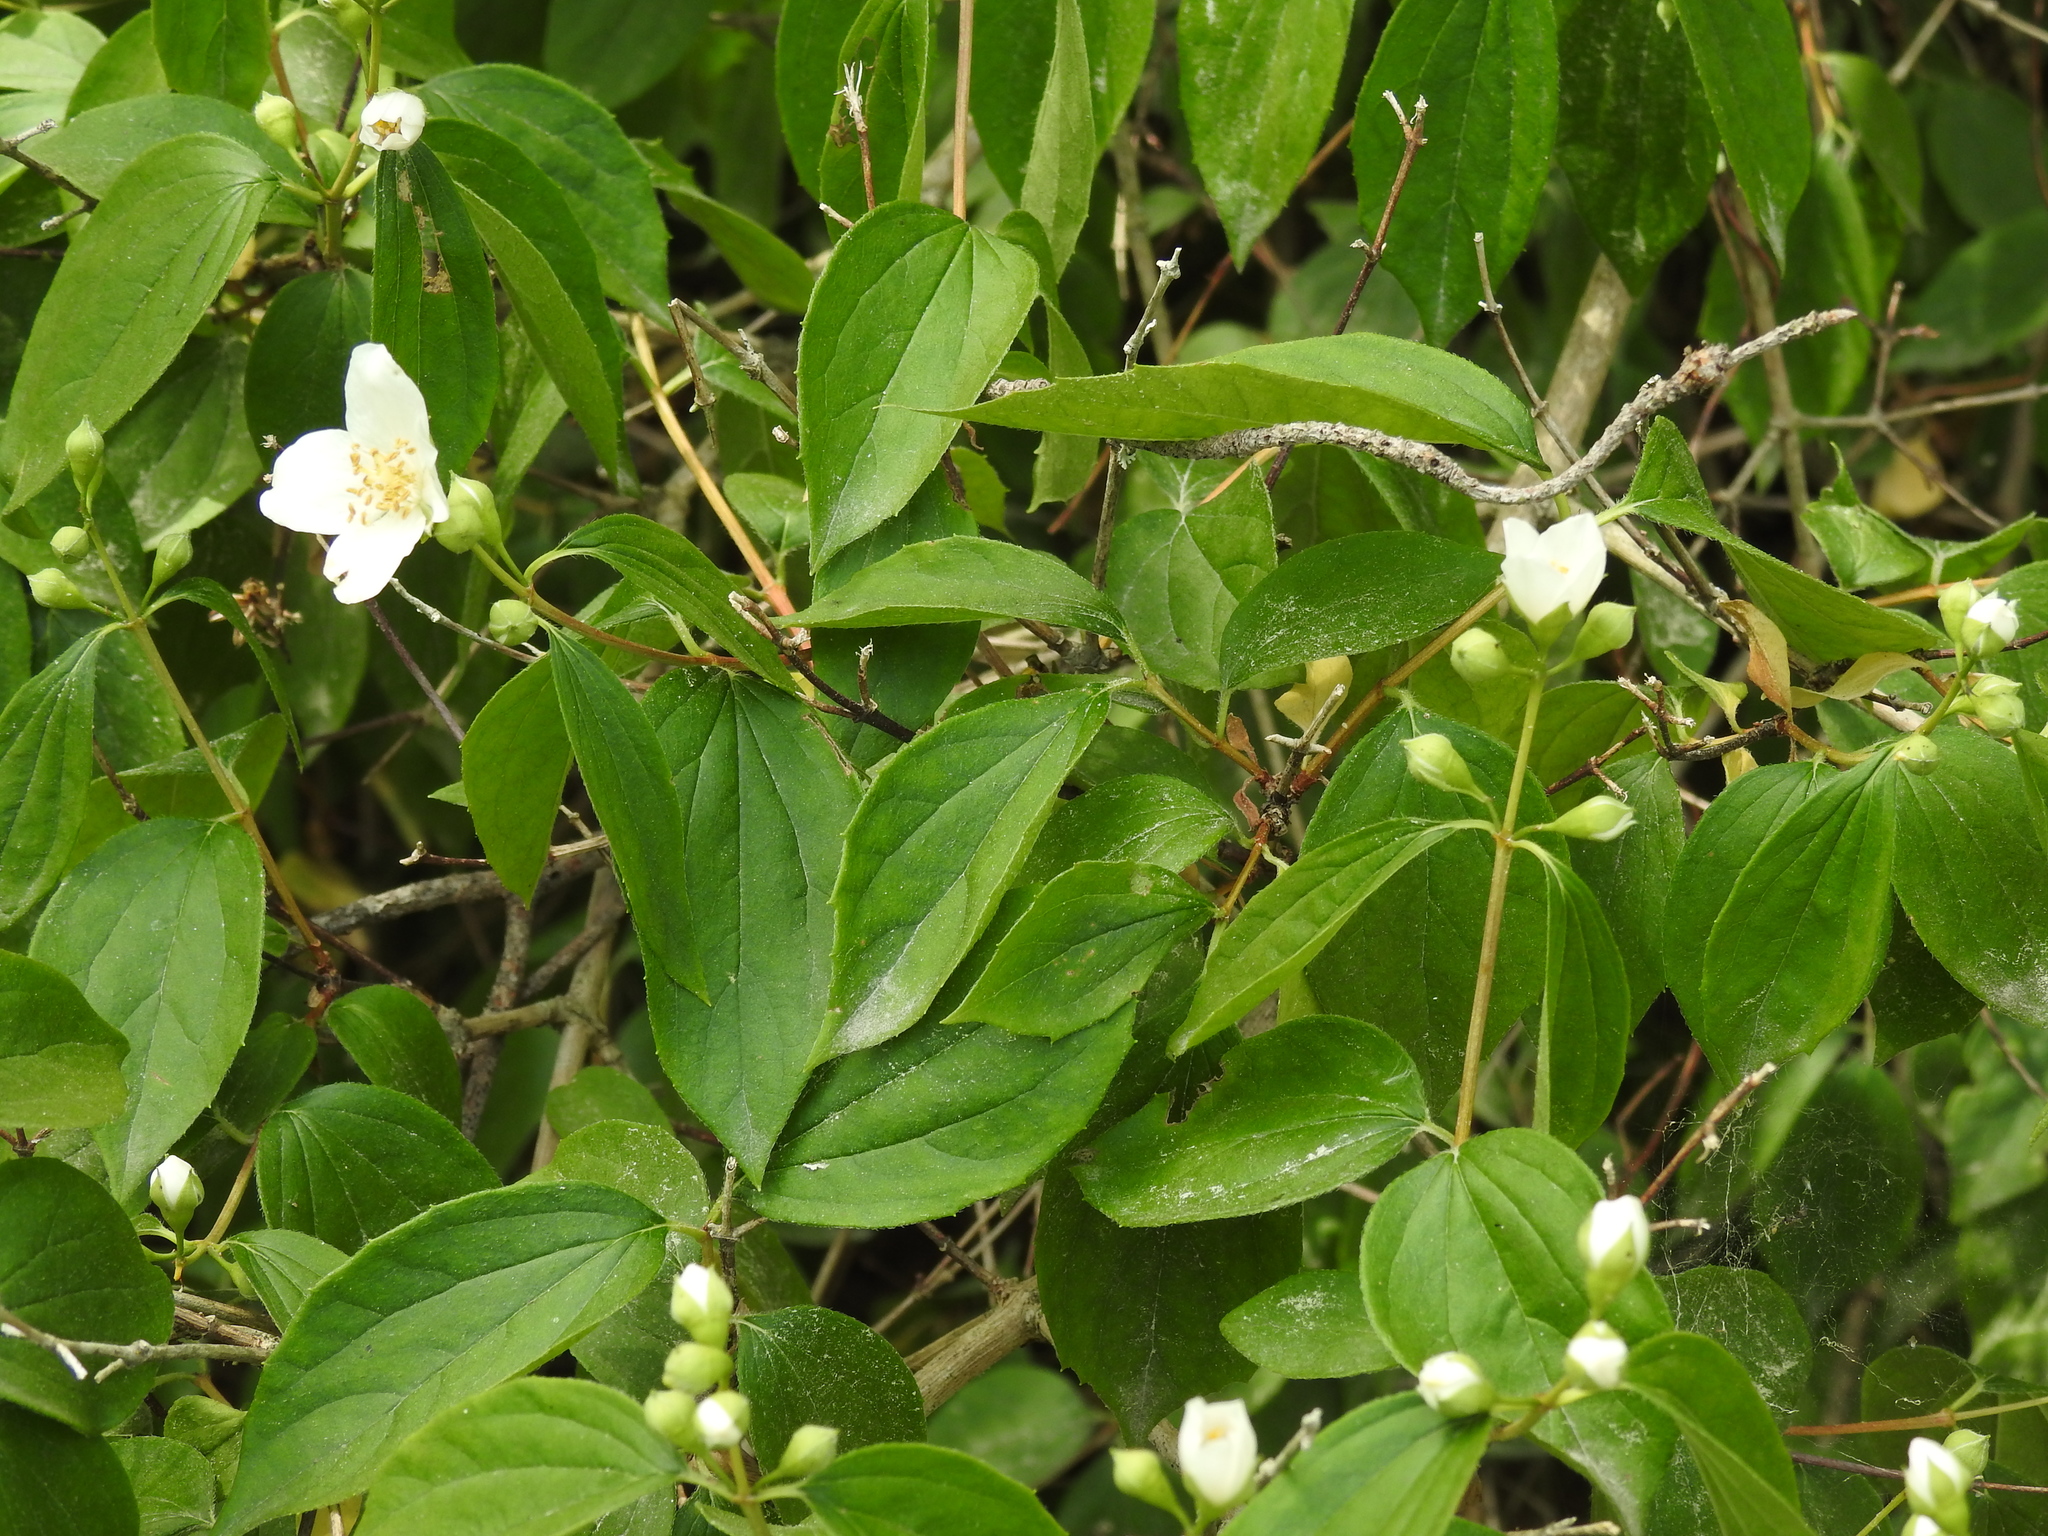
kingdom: Plantae
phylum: Tracheophyta
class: Magnoliopsida
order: Cornales
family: Hydrangeaceae
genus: Philadelphus
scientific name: Philadelphus coronarius
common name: Mock orange
